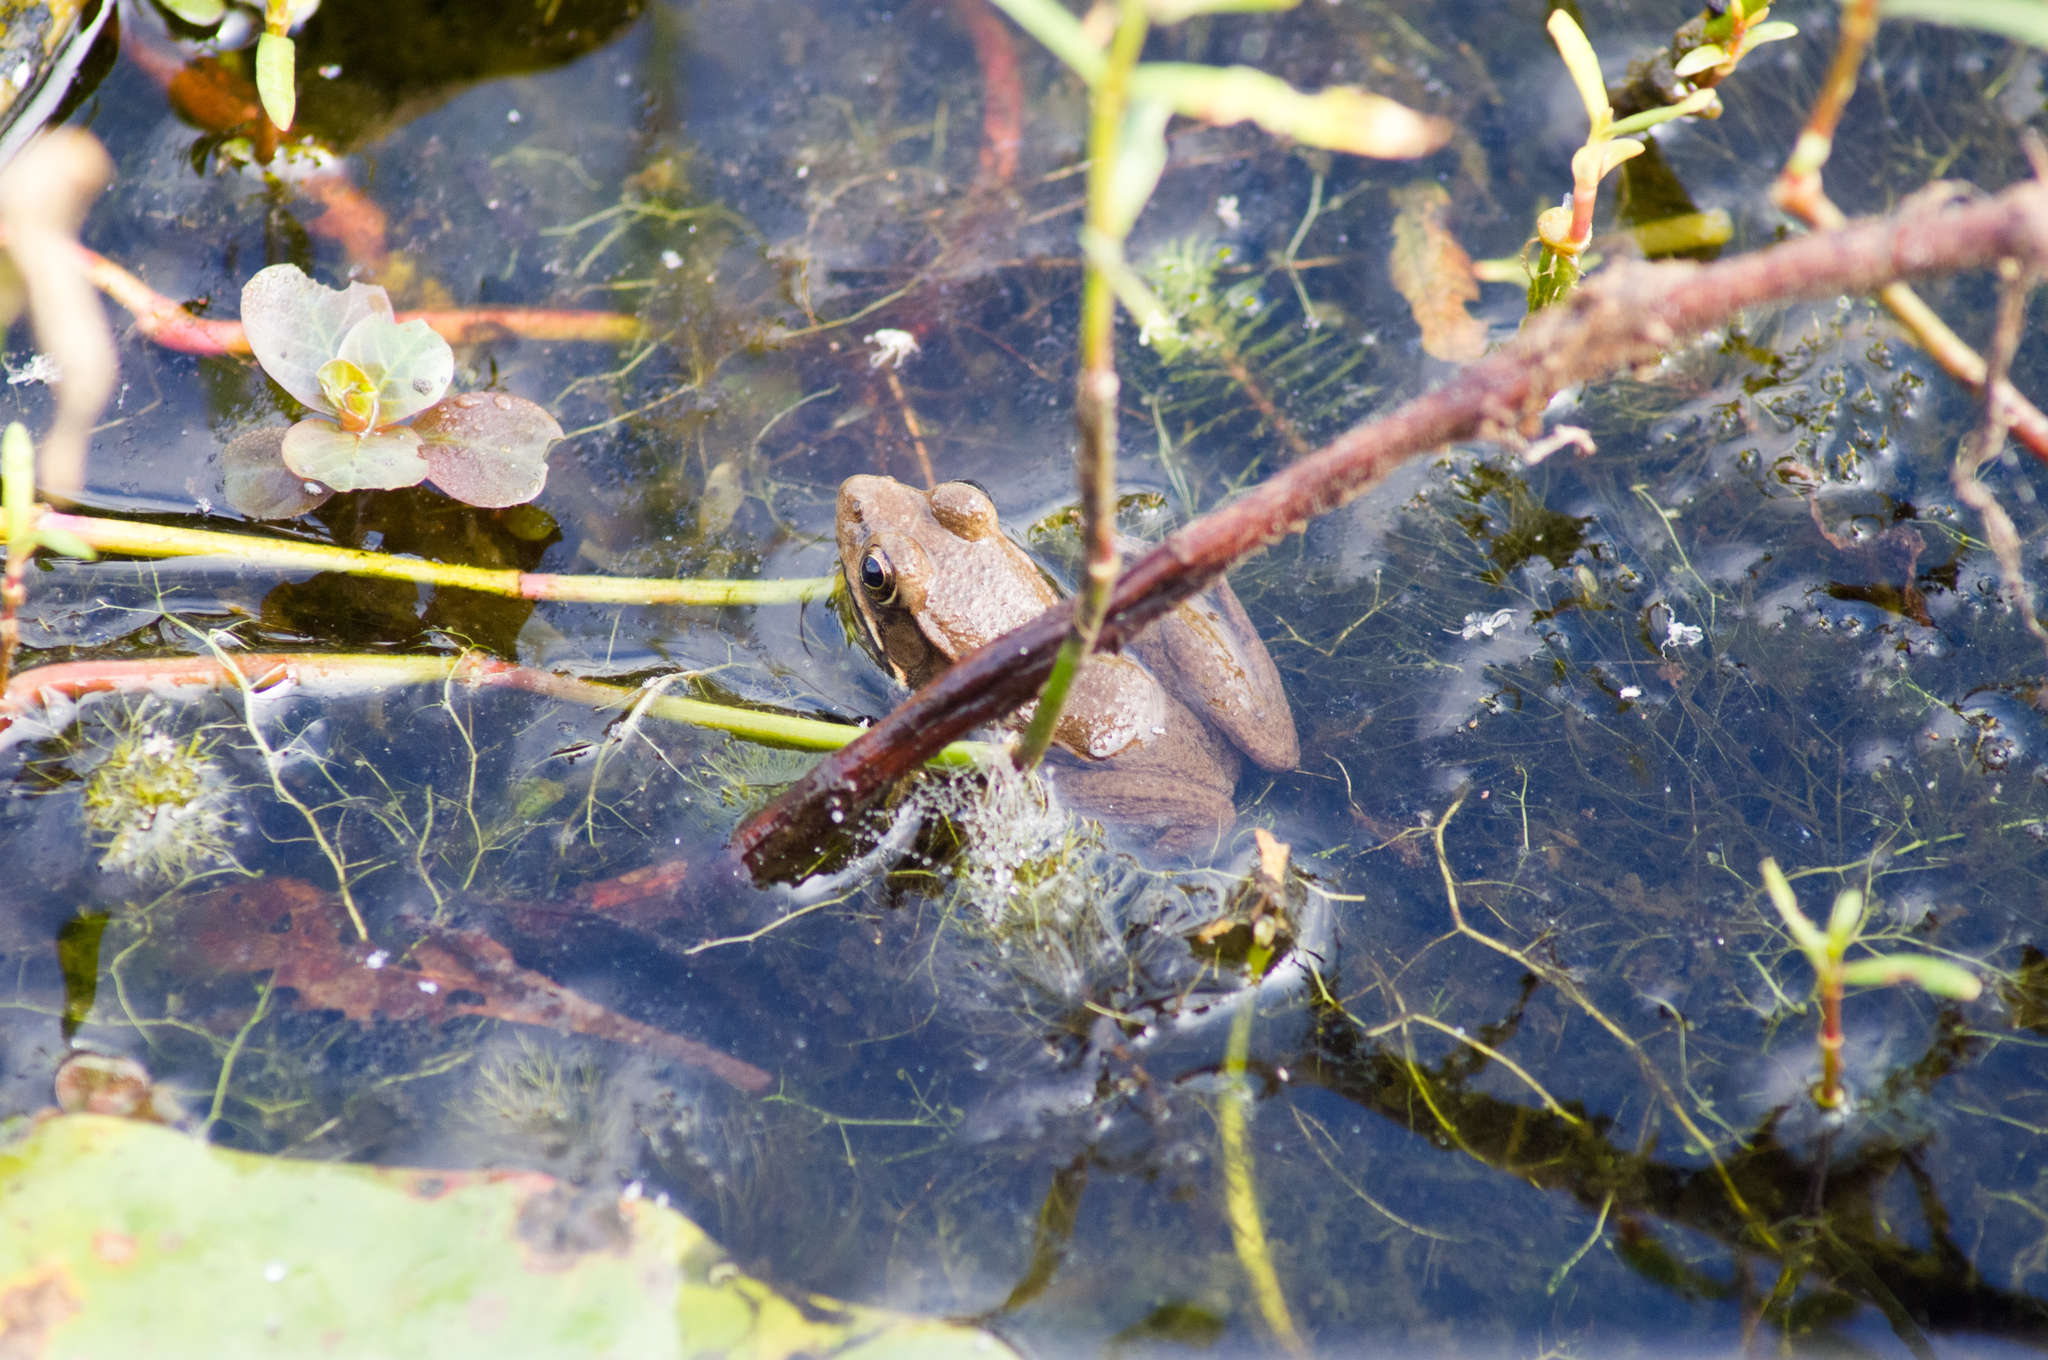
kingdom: Animalia
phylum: Chordata
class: Amphibia
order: Anura
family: Ranidae
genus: Lithobates
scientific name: Lithobates clamitans
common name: Green frog
